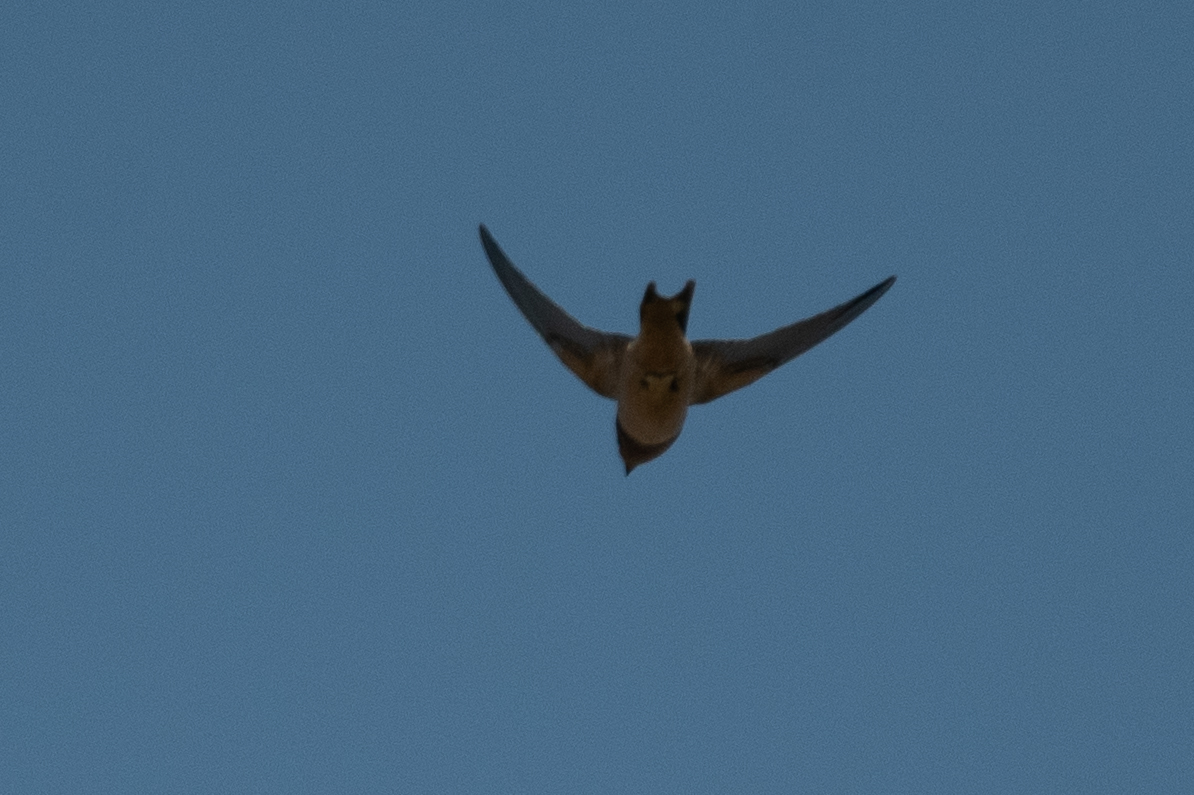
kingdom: Animalia
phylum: Chordata
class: Aves
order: Passeriformes
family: Hirundinidae
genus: Hirundo
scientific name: Hirundo rustica
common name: Barn swallow
